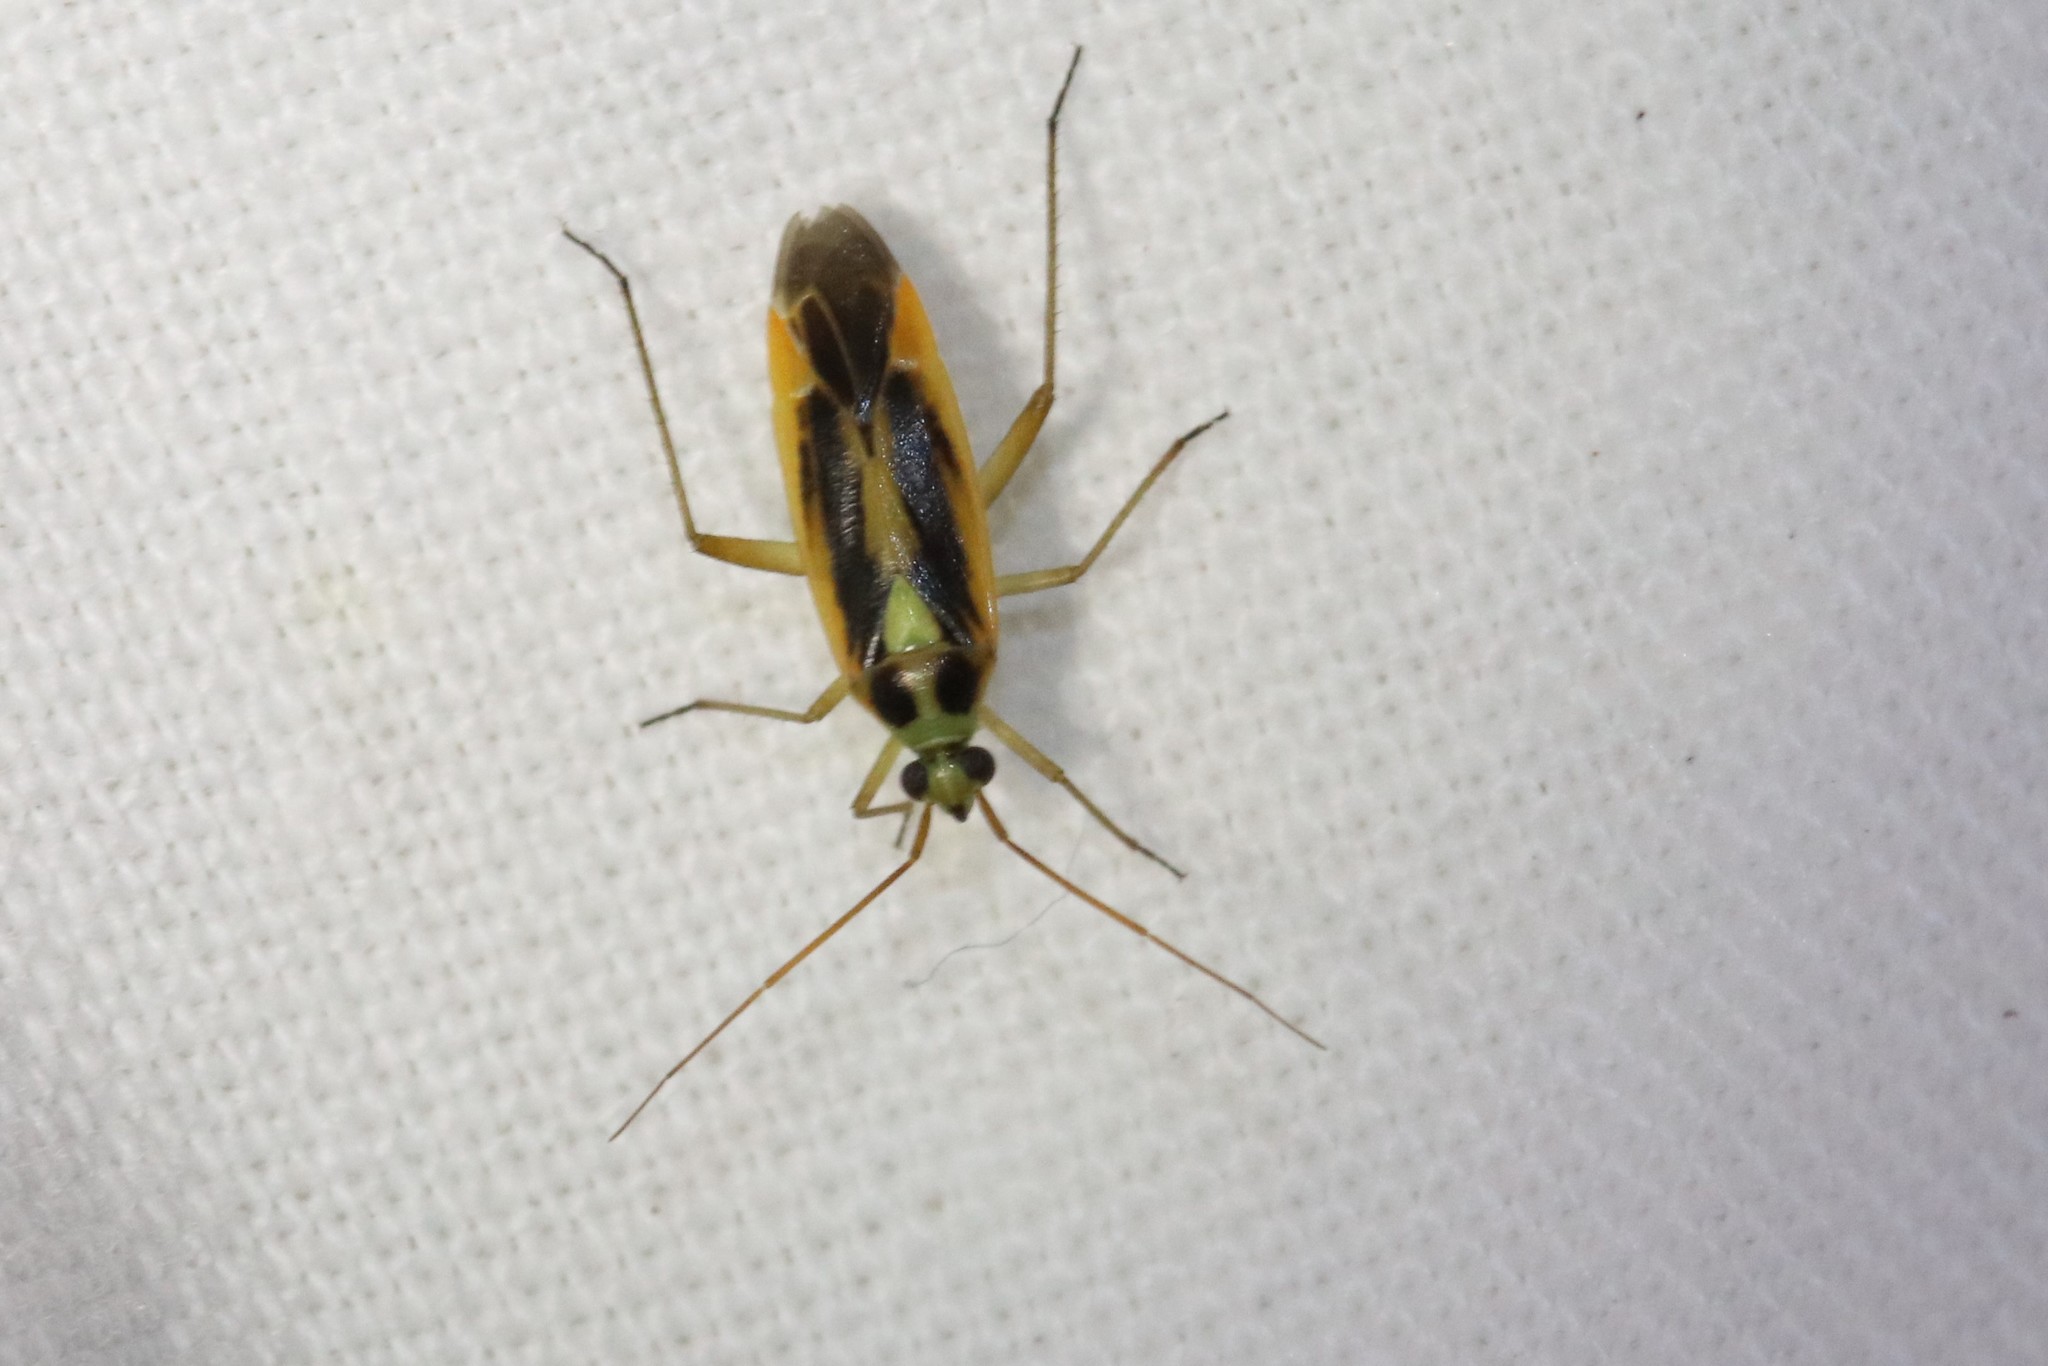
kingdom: Animalia
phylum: Arthropoda
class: Insecta
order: Hemiptera
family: Miridae
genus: Stenotus
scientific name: Stenotus binotatus
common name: Plant bug
